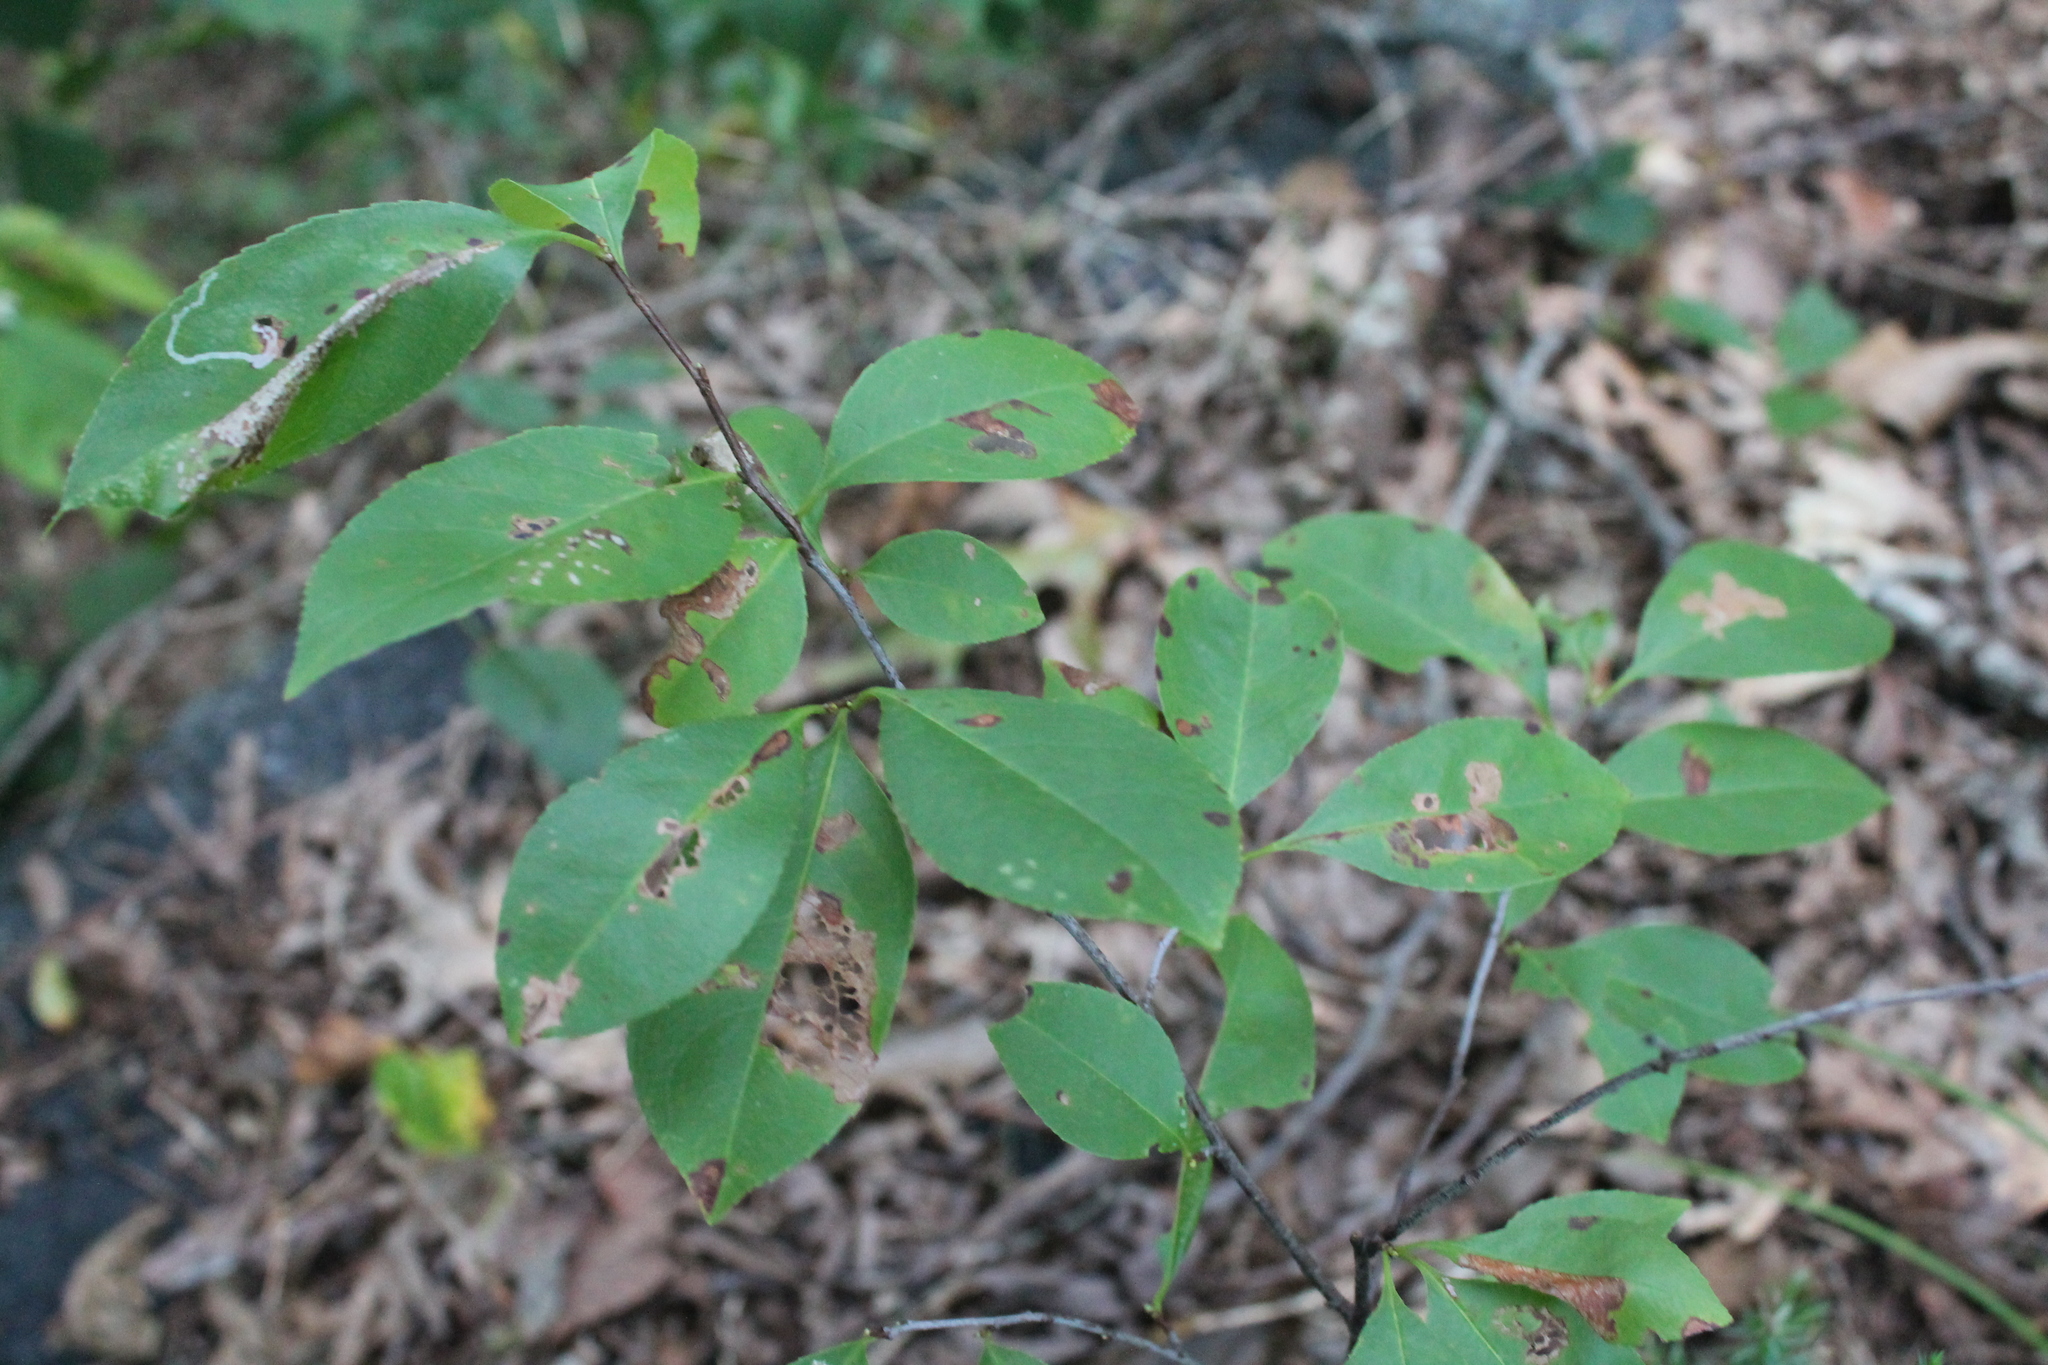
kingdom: Plantae
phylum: Tracheophyta
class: Magnoliopsida
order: Rosales
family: Rosaceae
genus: Prunus
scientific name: Prunus serotina
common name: Black cherry
